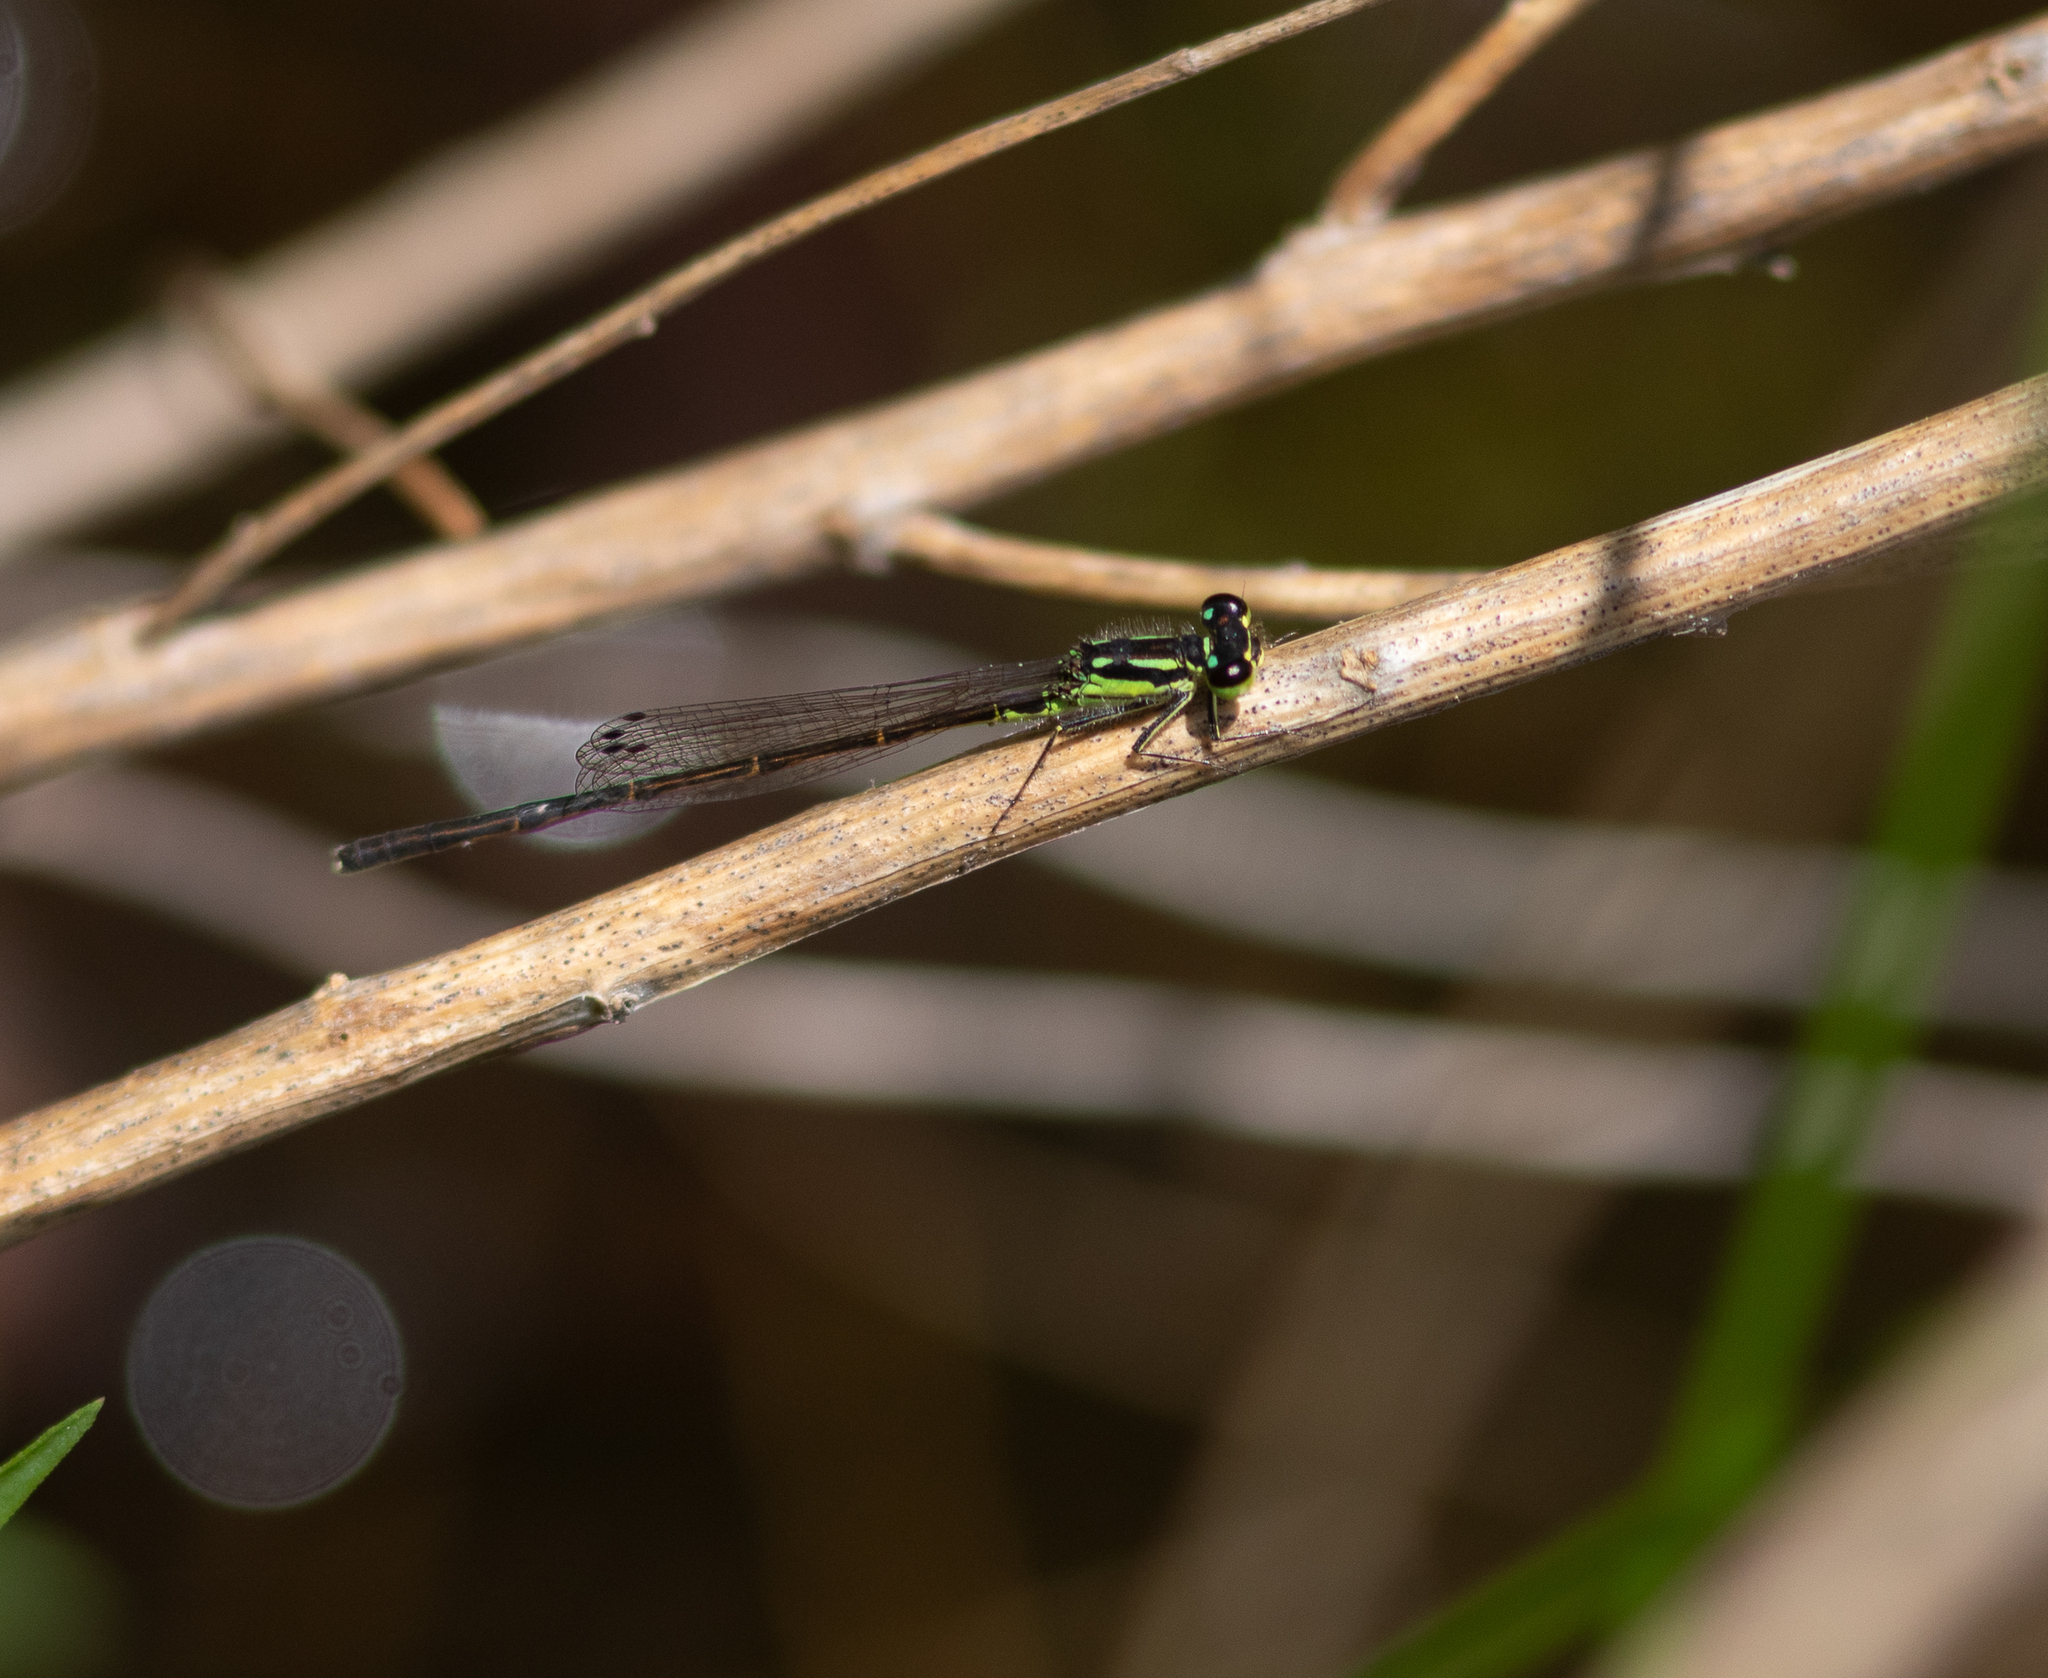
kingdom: Animalia
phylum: Arthropoda
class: Insecta
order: Odonata
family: Coenagrionidae
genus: Ischnura
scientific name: Ischnura posita
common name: Fragile forktail
